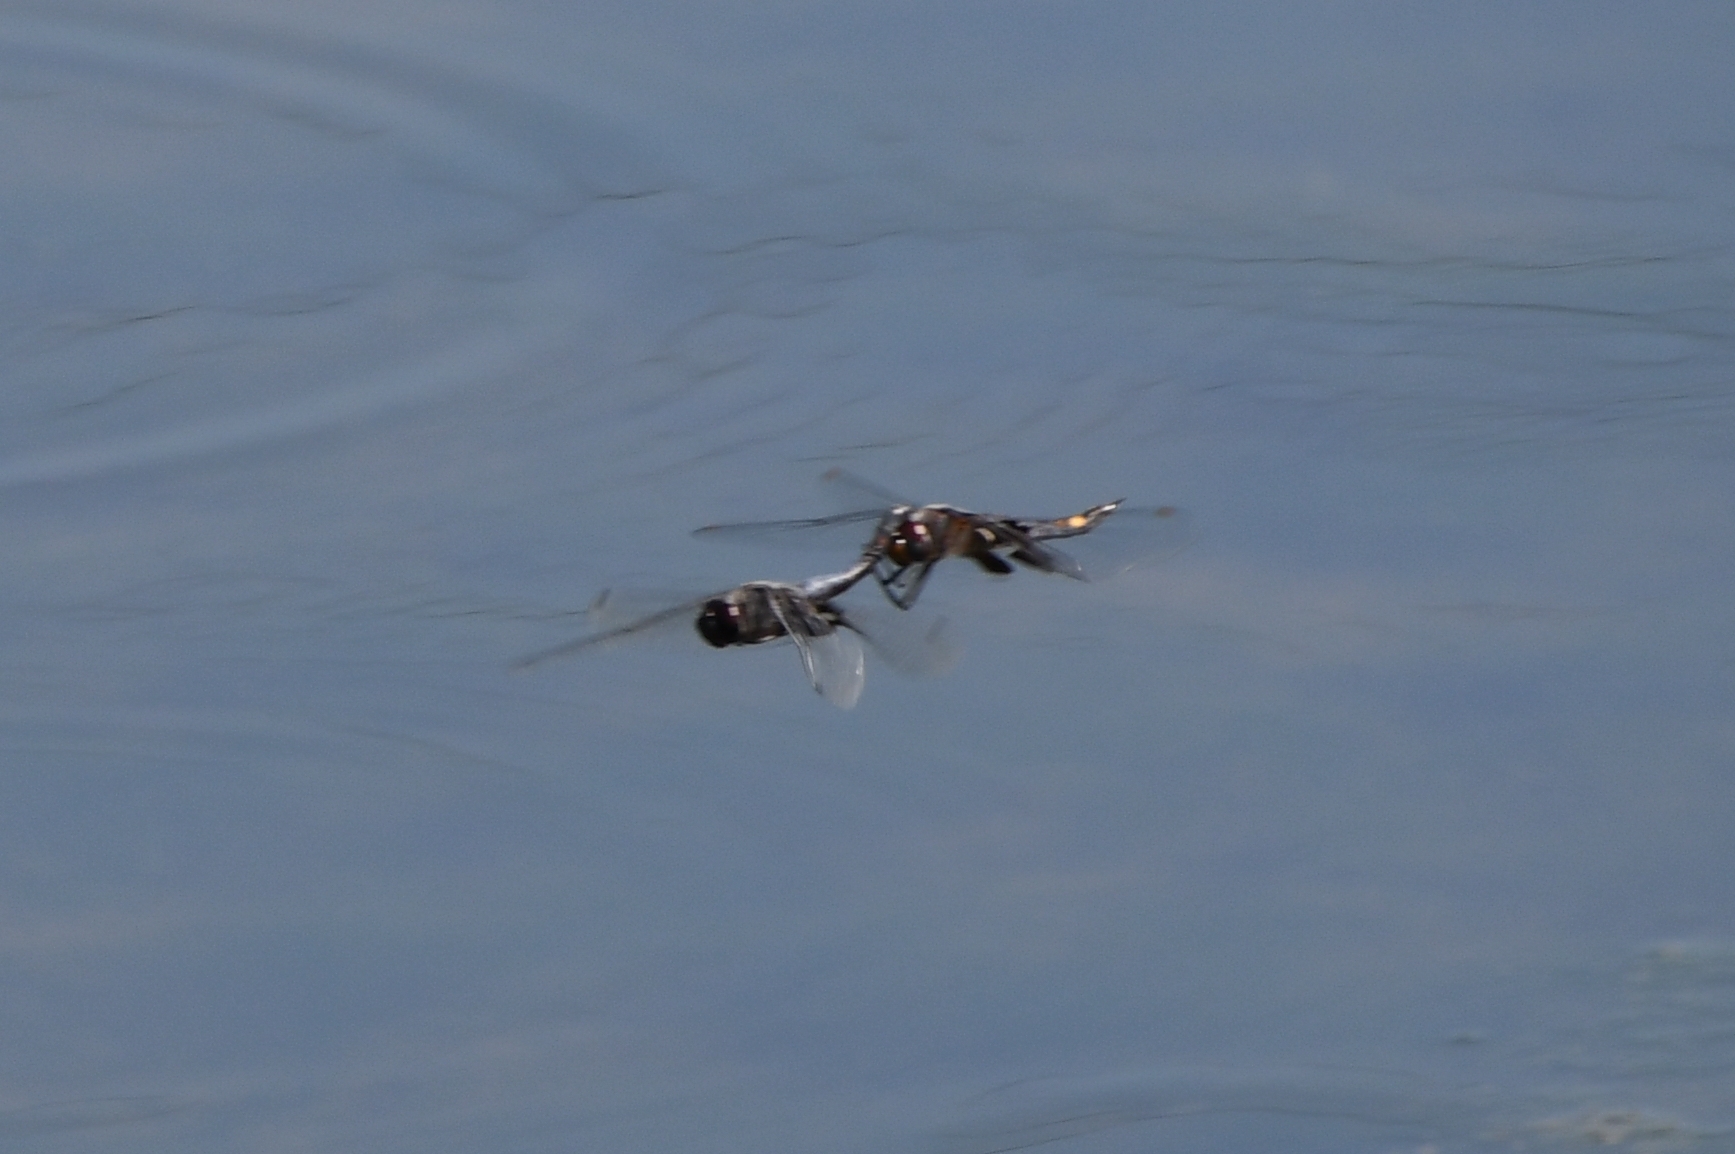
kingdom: Animalia
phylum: Arthropoda
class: Insecta
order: Odonata
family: Libellulidae
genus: Tramea
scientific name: Tramea lacerata
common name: Black saddlebags
